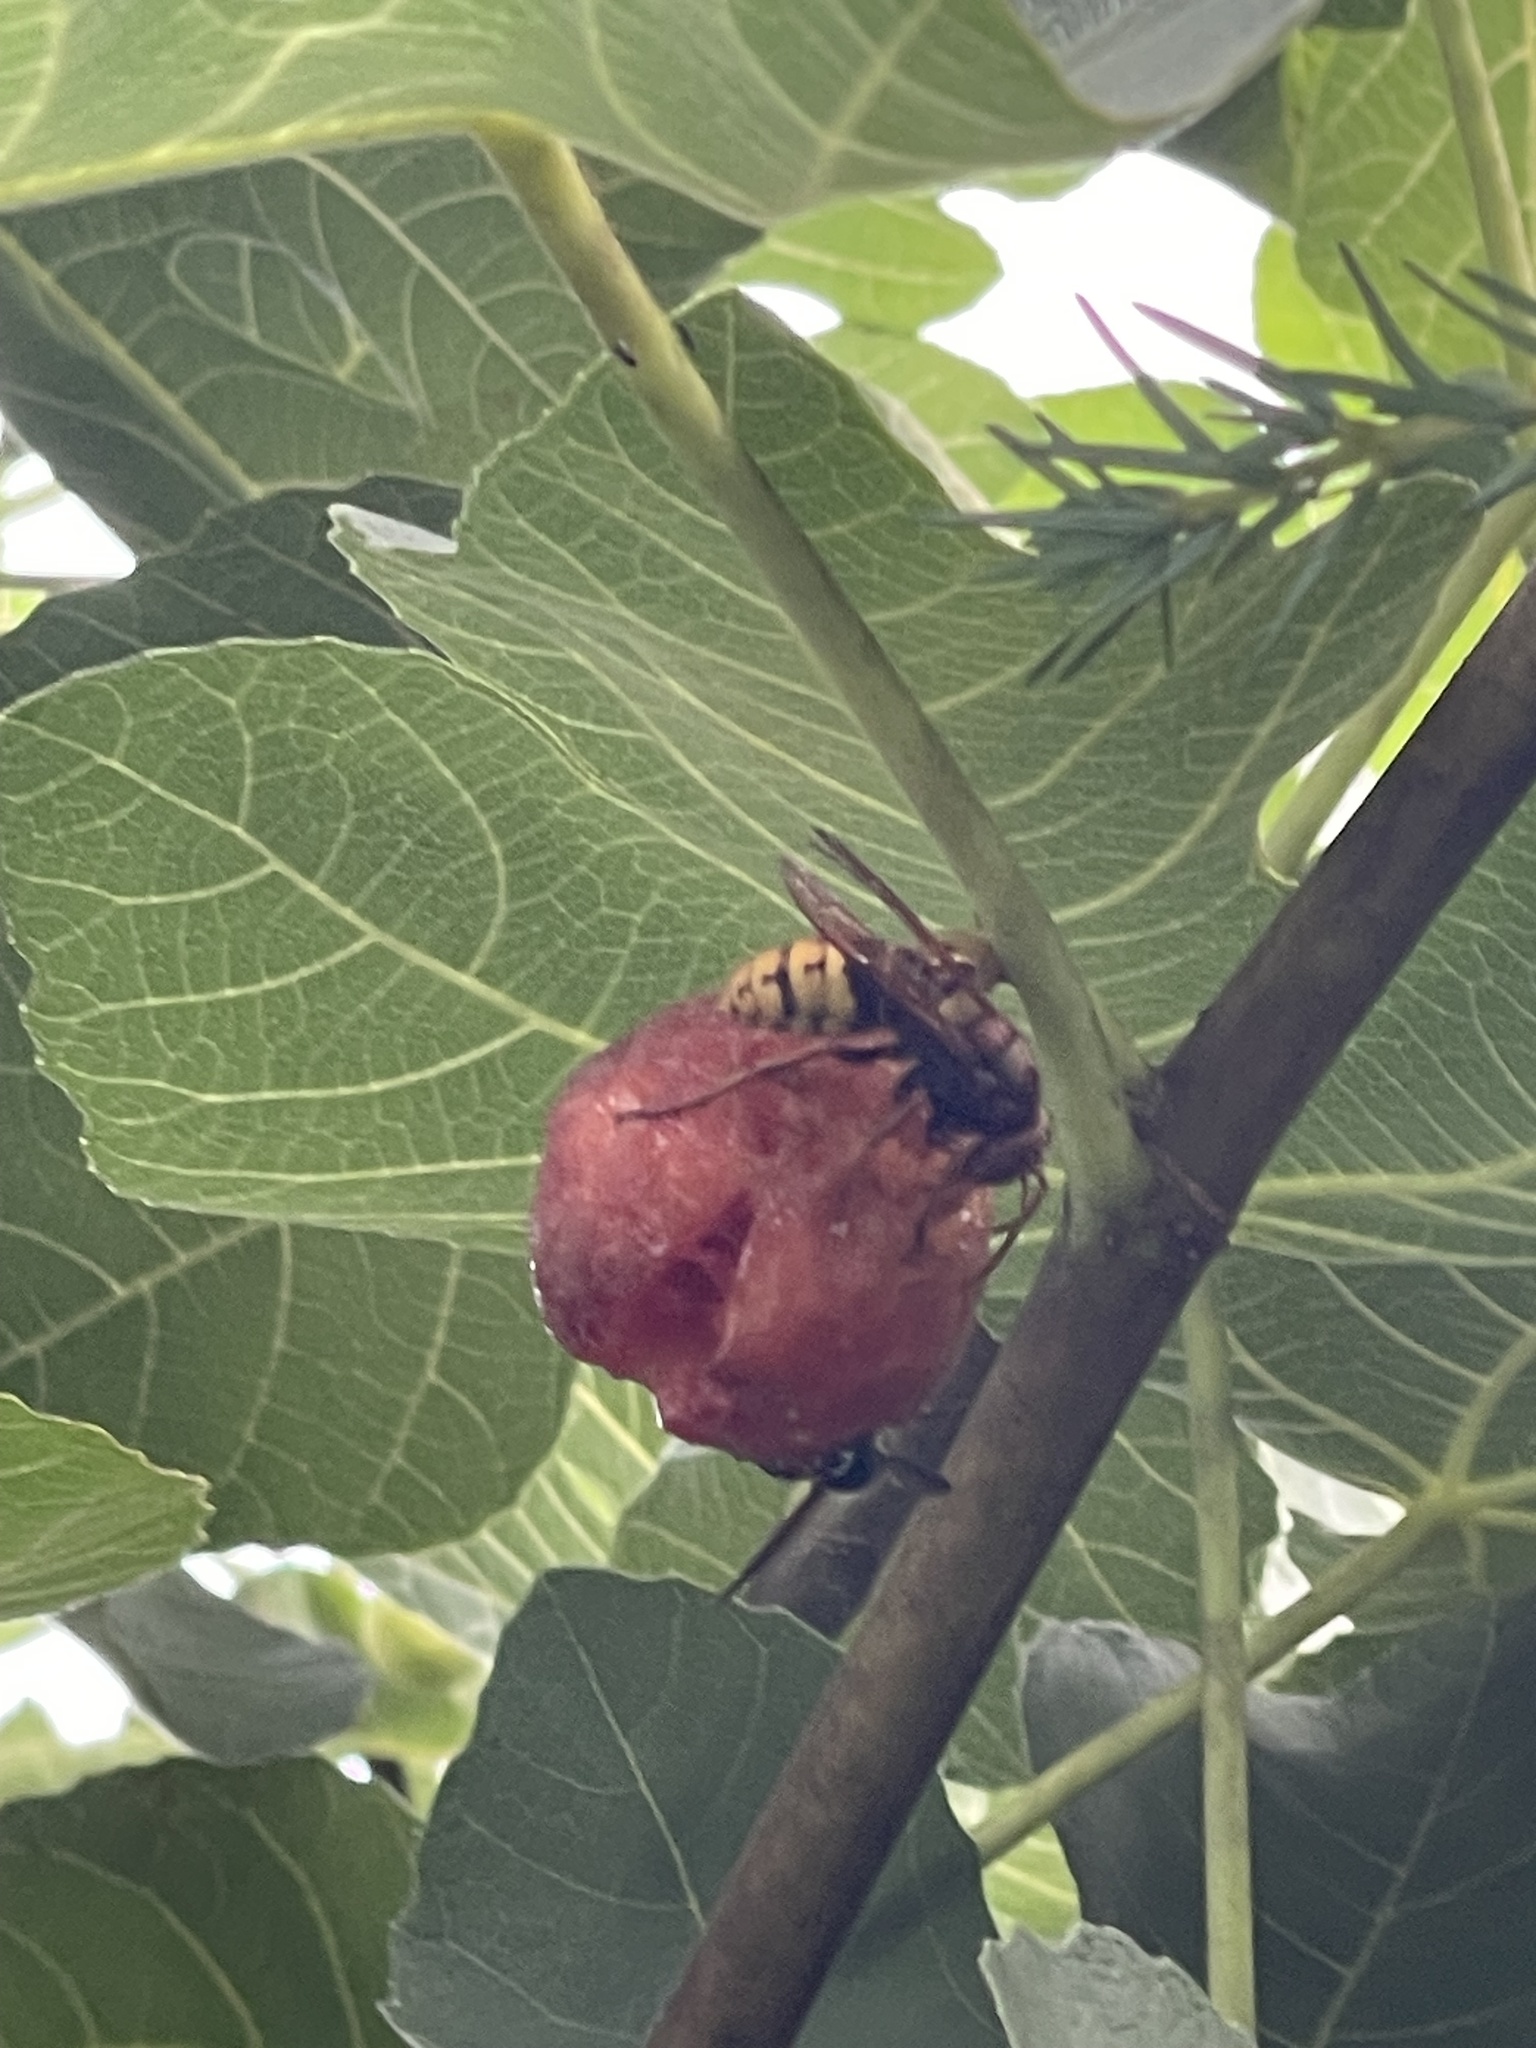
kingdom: Animalia
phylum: Arthropoda
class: Insecta
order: Hymenoptera
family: Vespidae
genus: Vespa
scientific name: Vespa crabro
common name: Hornet
